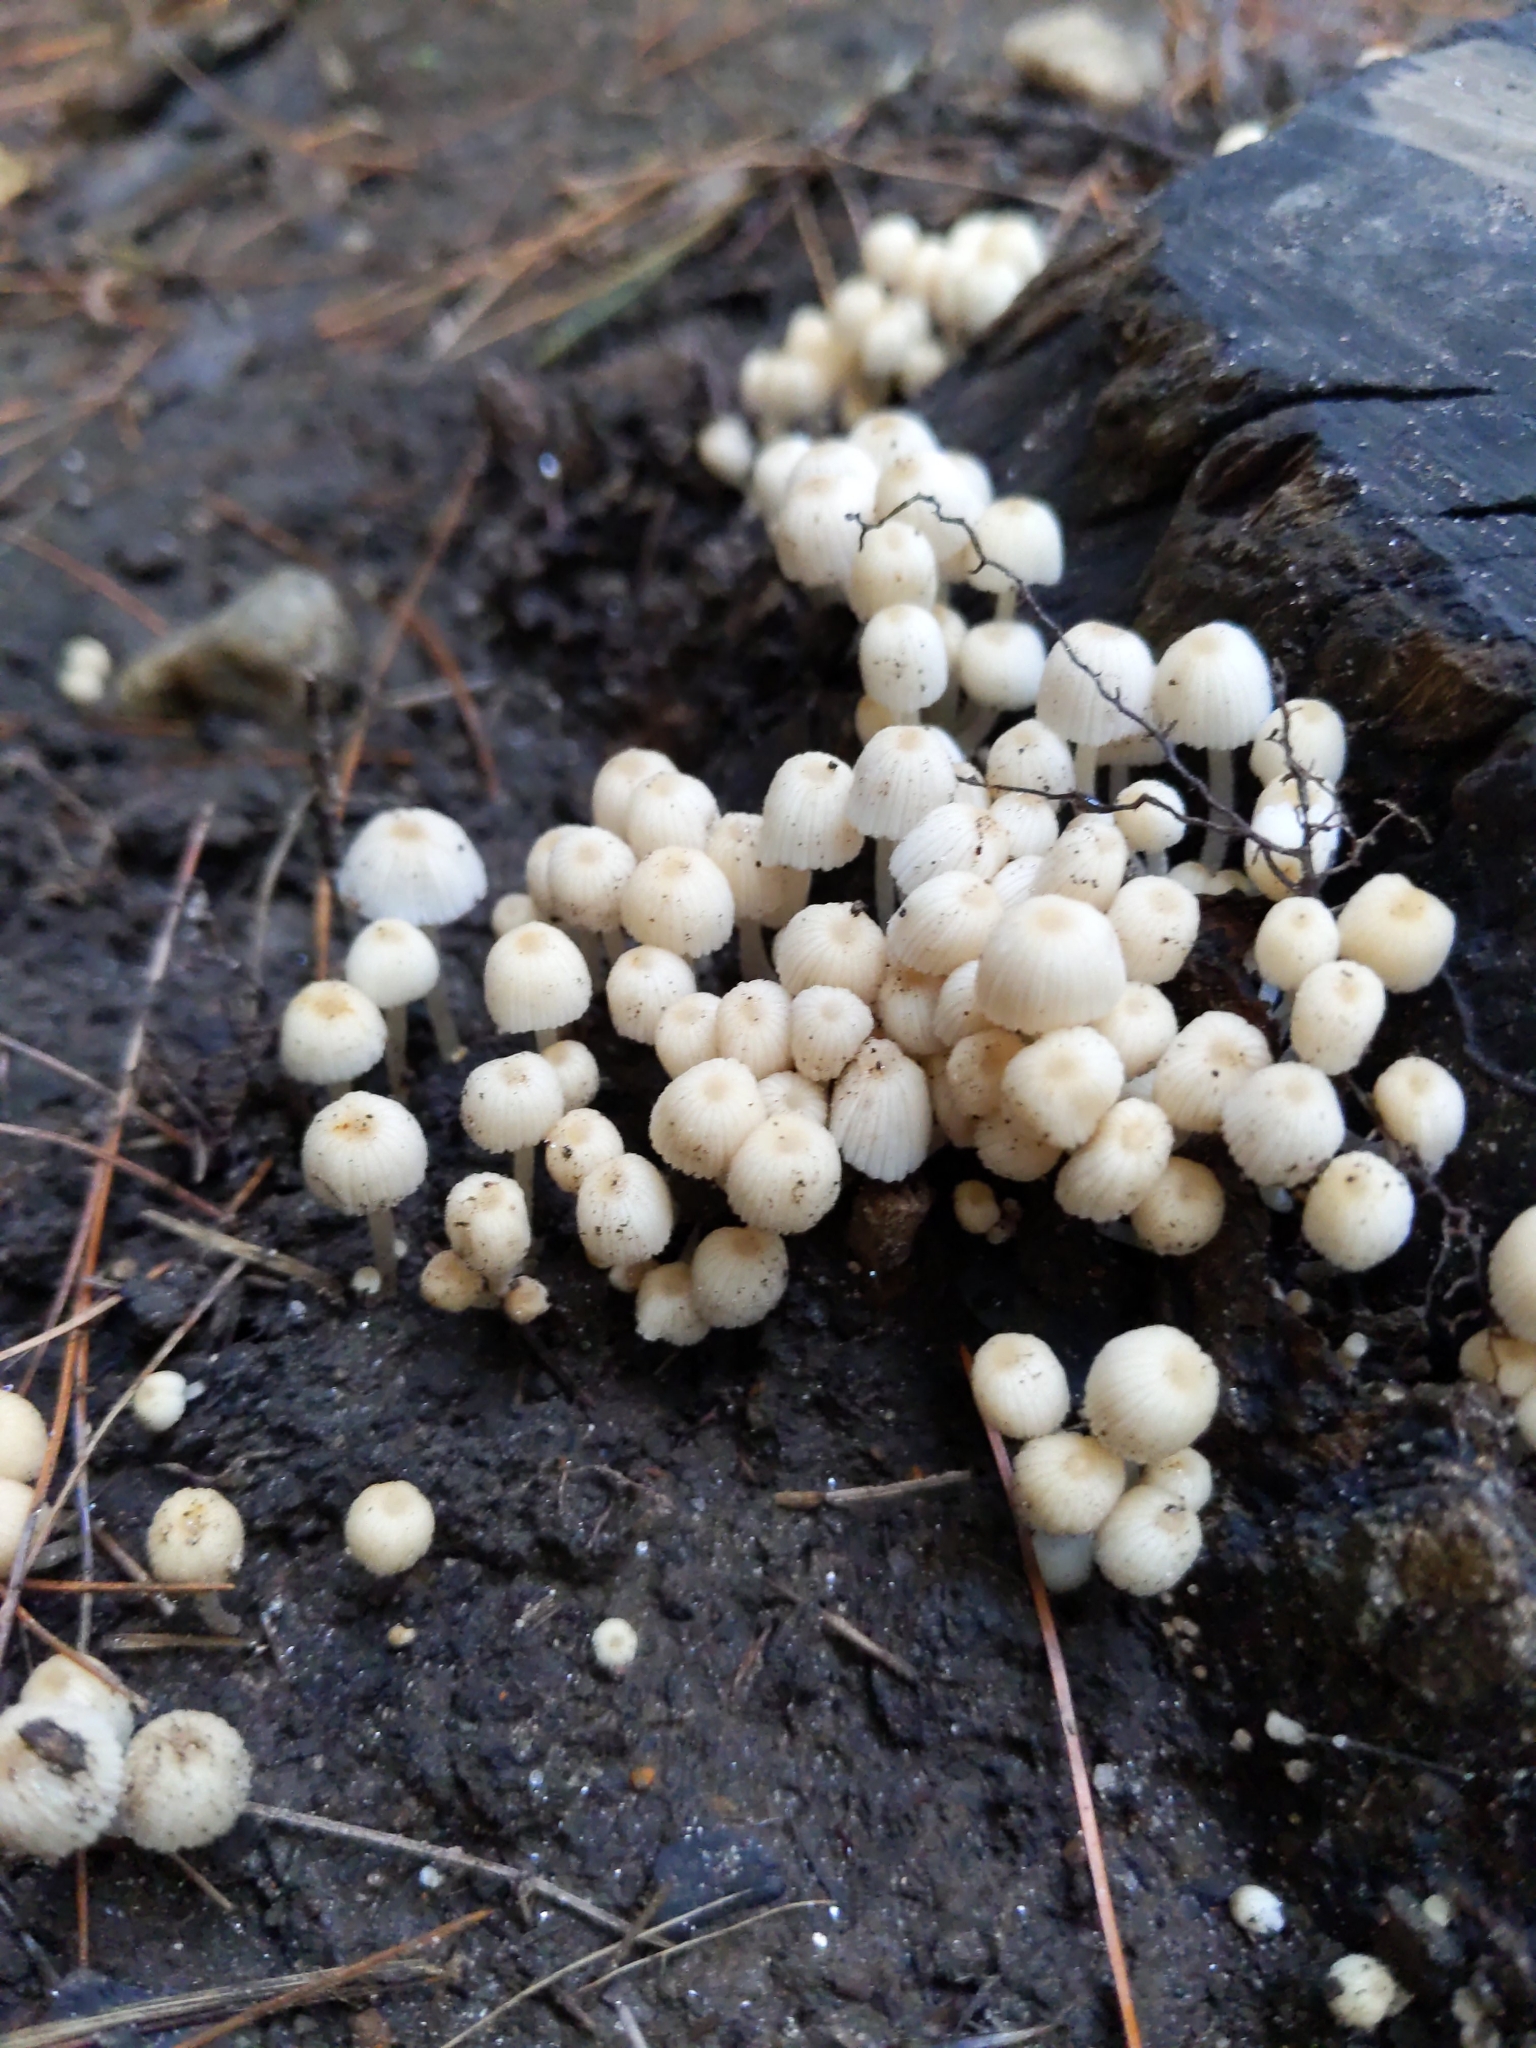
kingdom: Fungi
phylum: Basidiomycota
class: Agaricomycetes
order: Agaricales
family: Psathyrellaceae
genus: Coprinellus
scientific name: Coprinellus disseminatus
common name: Fairies' bonnets
